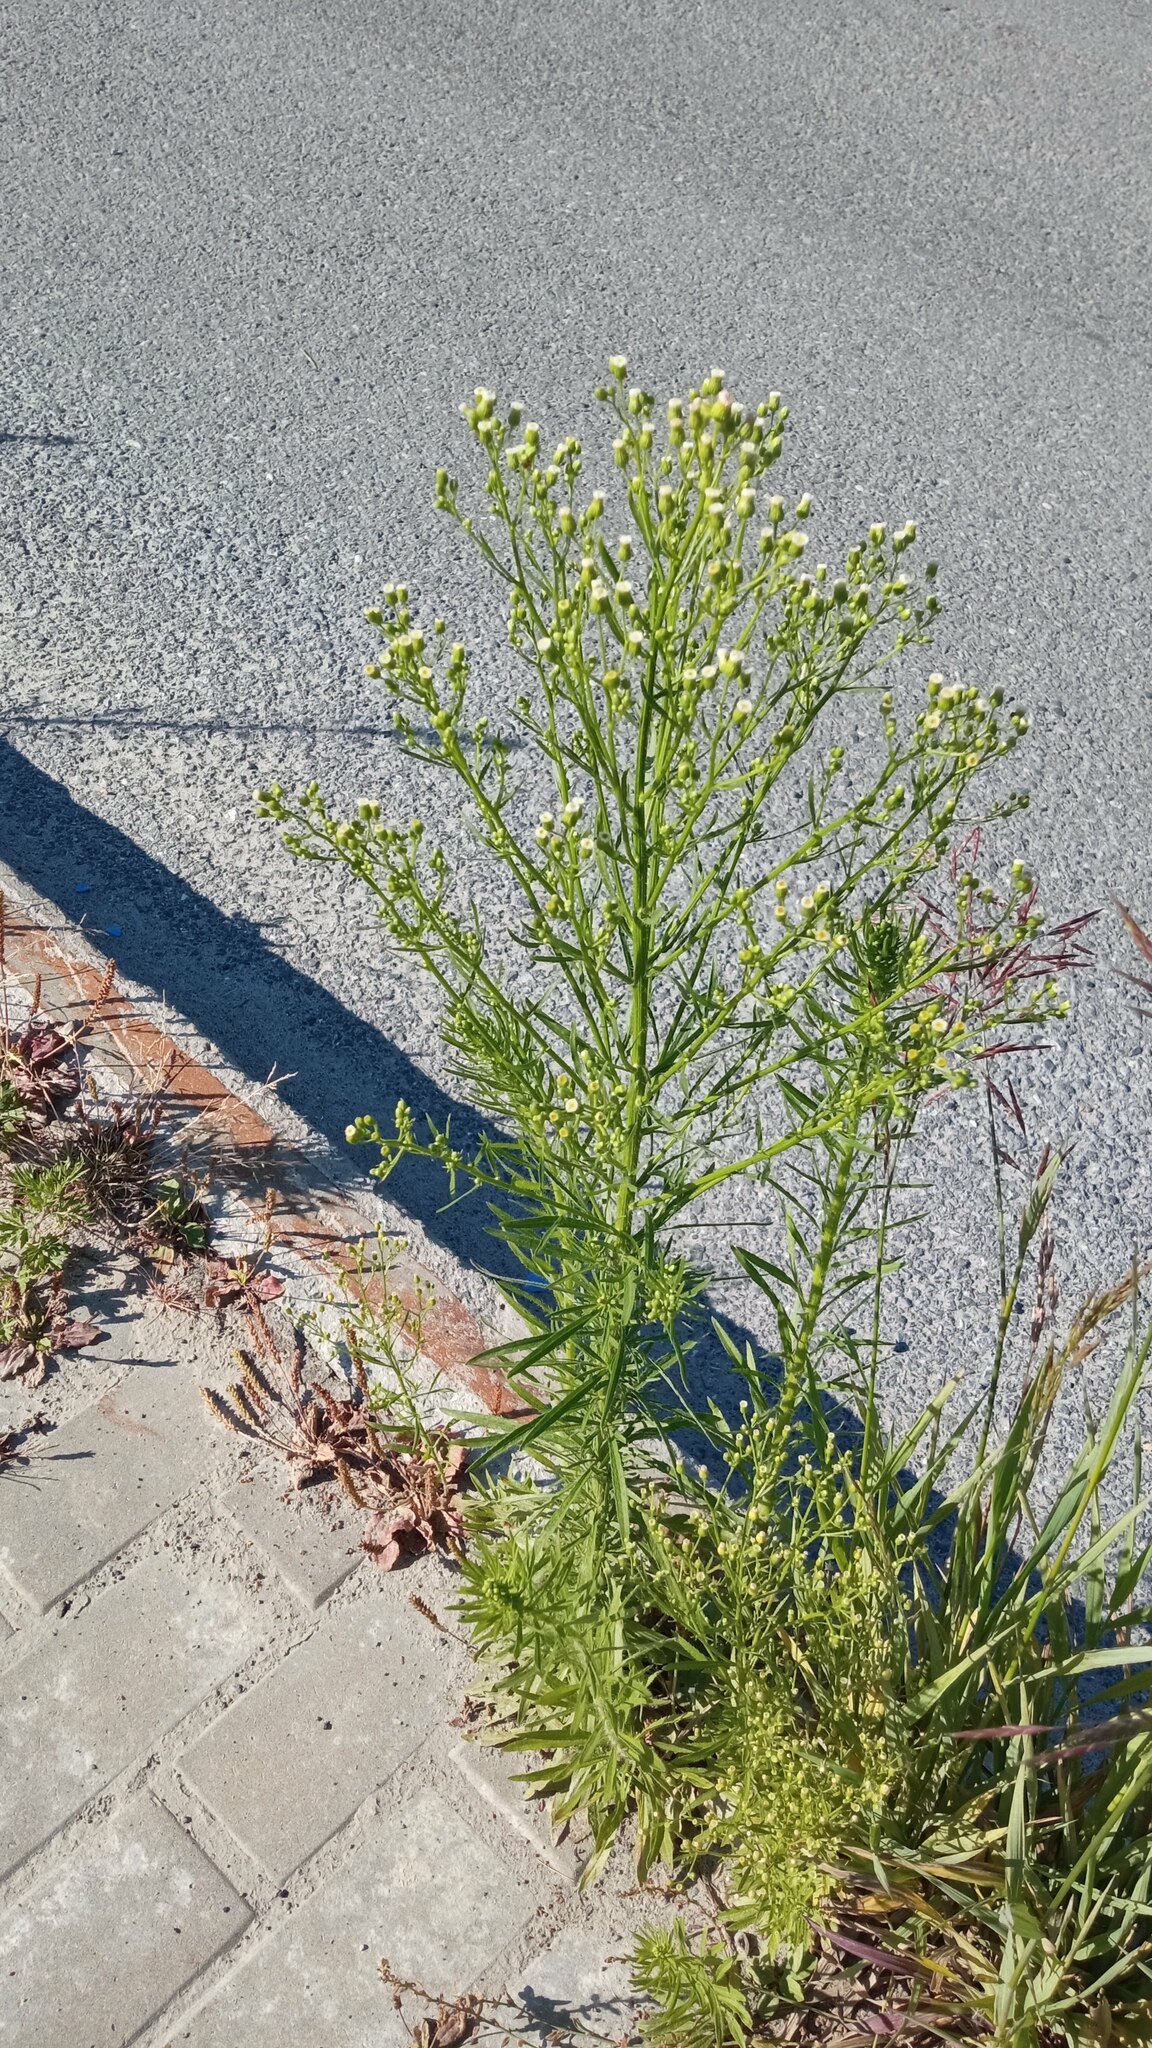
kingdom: Plantae
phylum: Tracheophyta
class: Magnoliopsida
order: Asterales
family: Asteraceae
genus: Erigeron
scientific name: Erigeron canadensis
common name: Canadian fleabane
